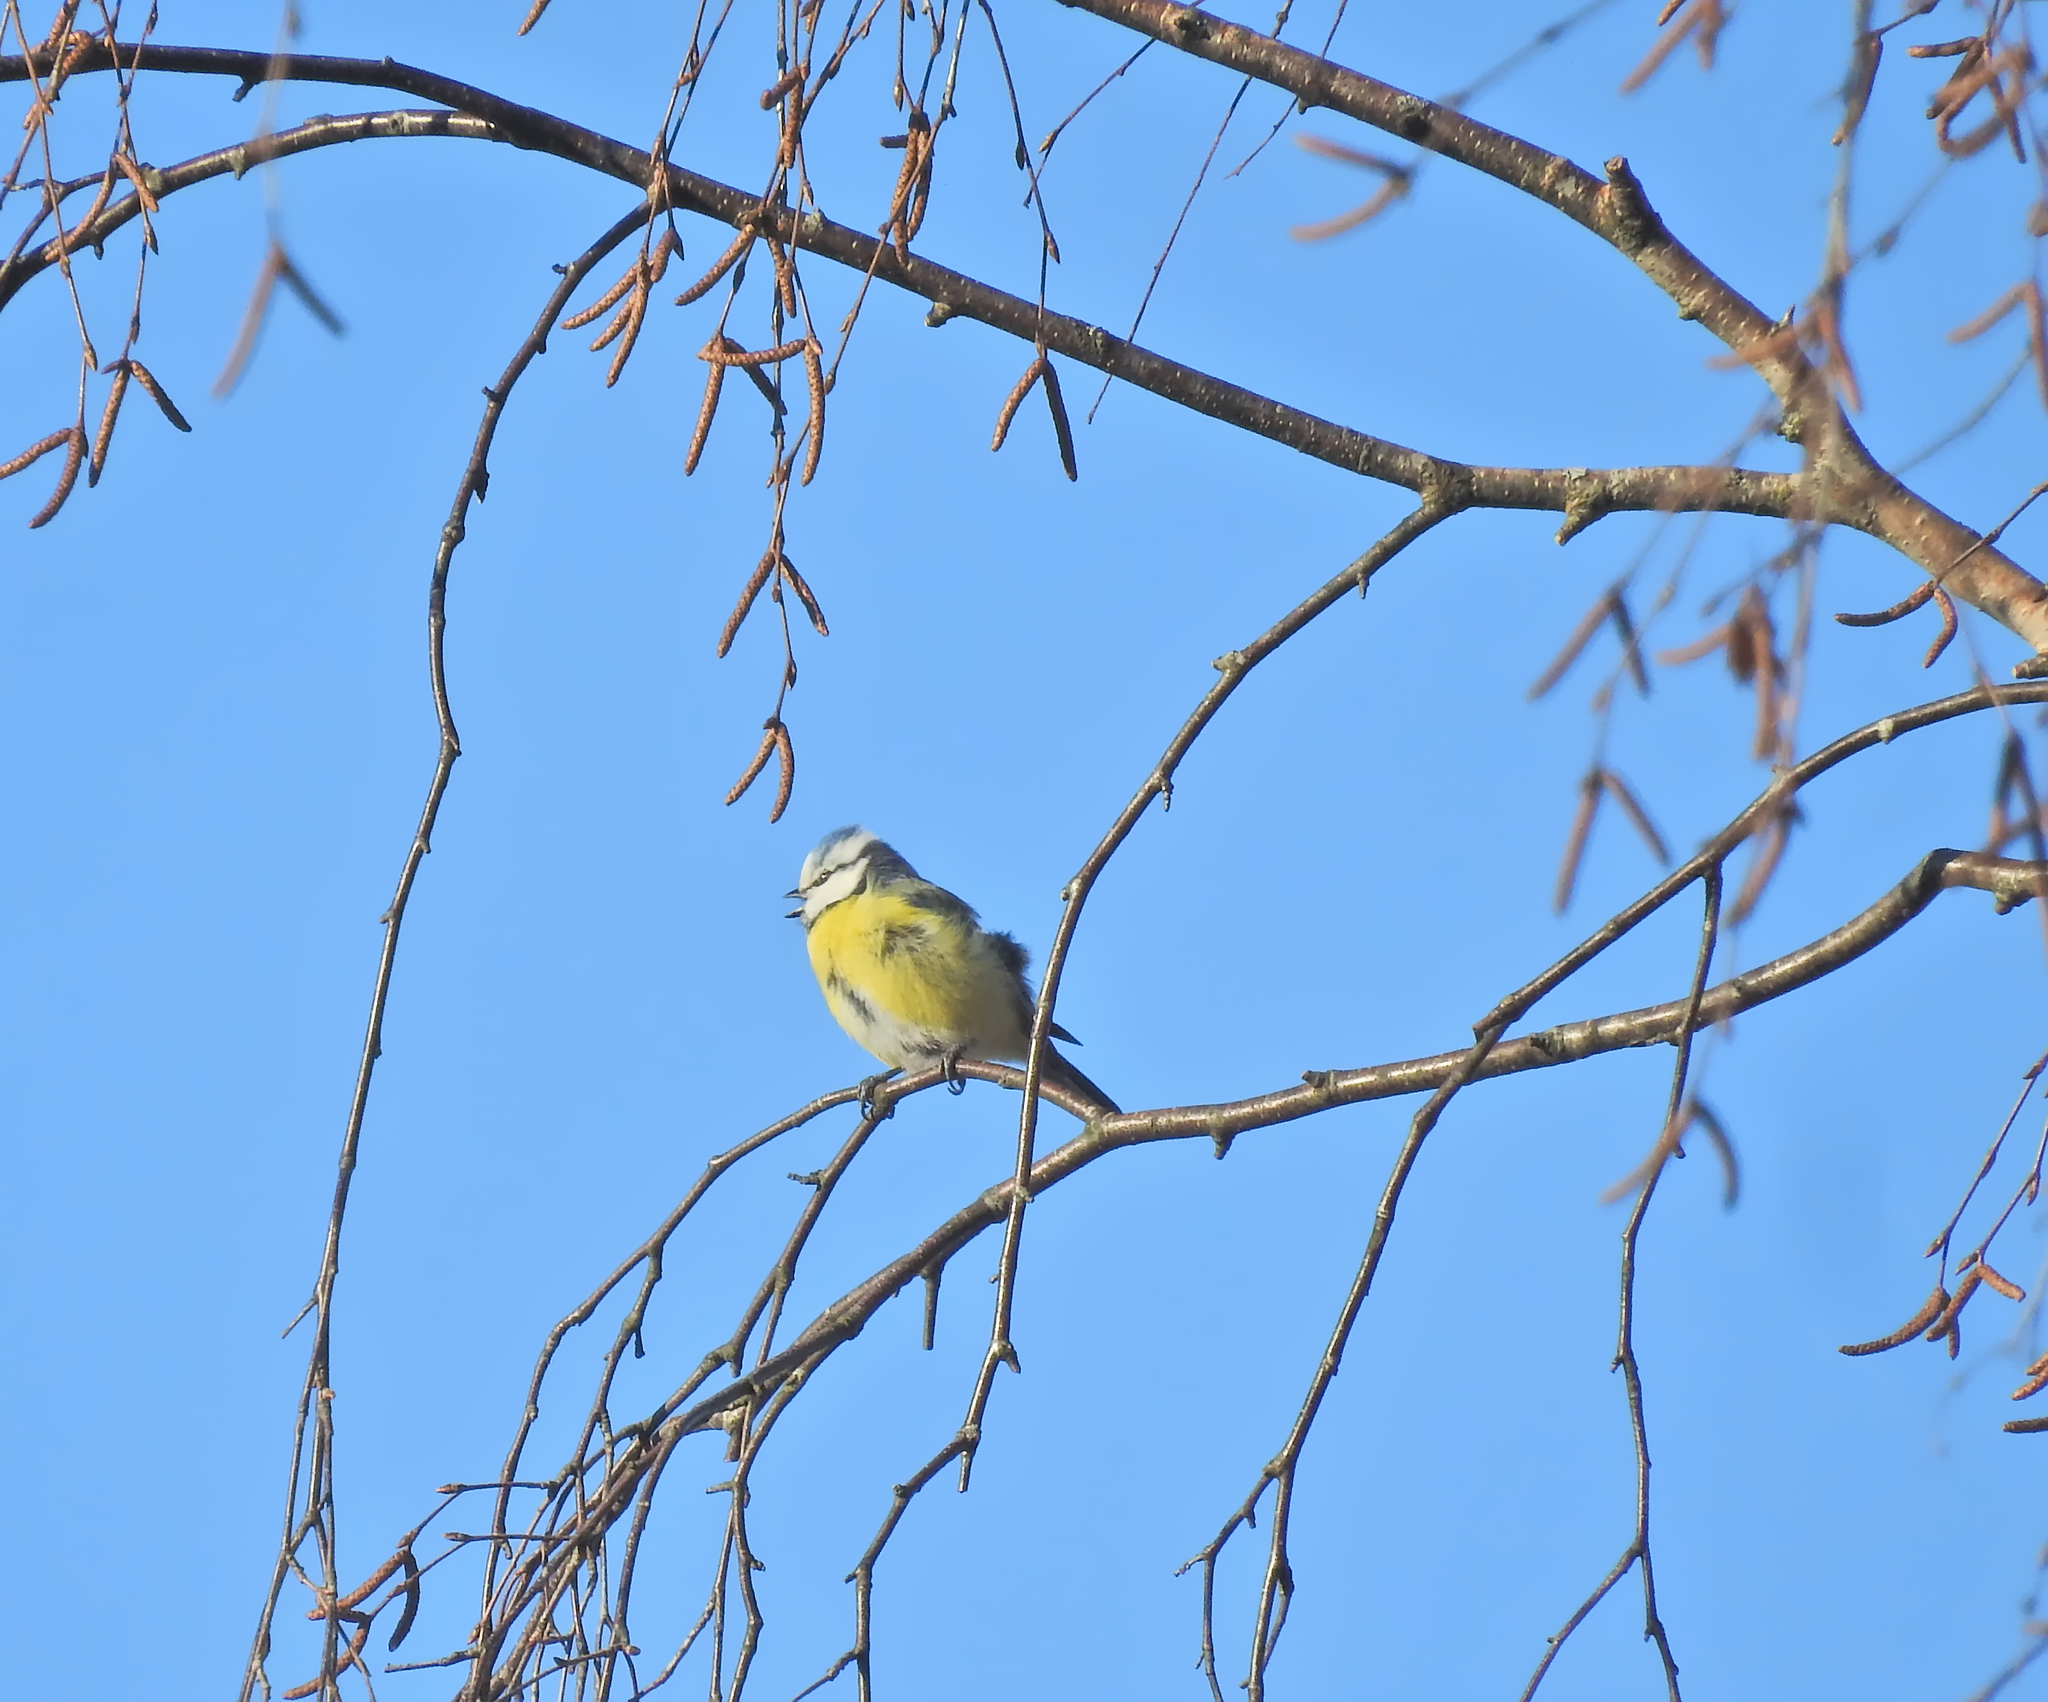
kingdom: Animalia
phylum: Chordata
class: Aves
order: Passeriformes
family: Paridae
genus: Cyanistes
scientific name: Cyanistes caeruleus
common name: Eurasian blue tit
